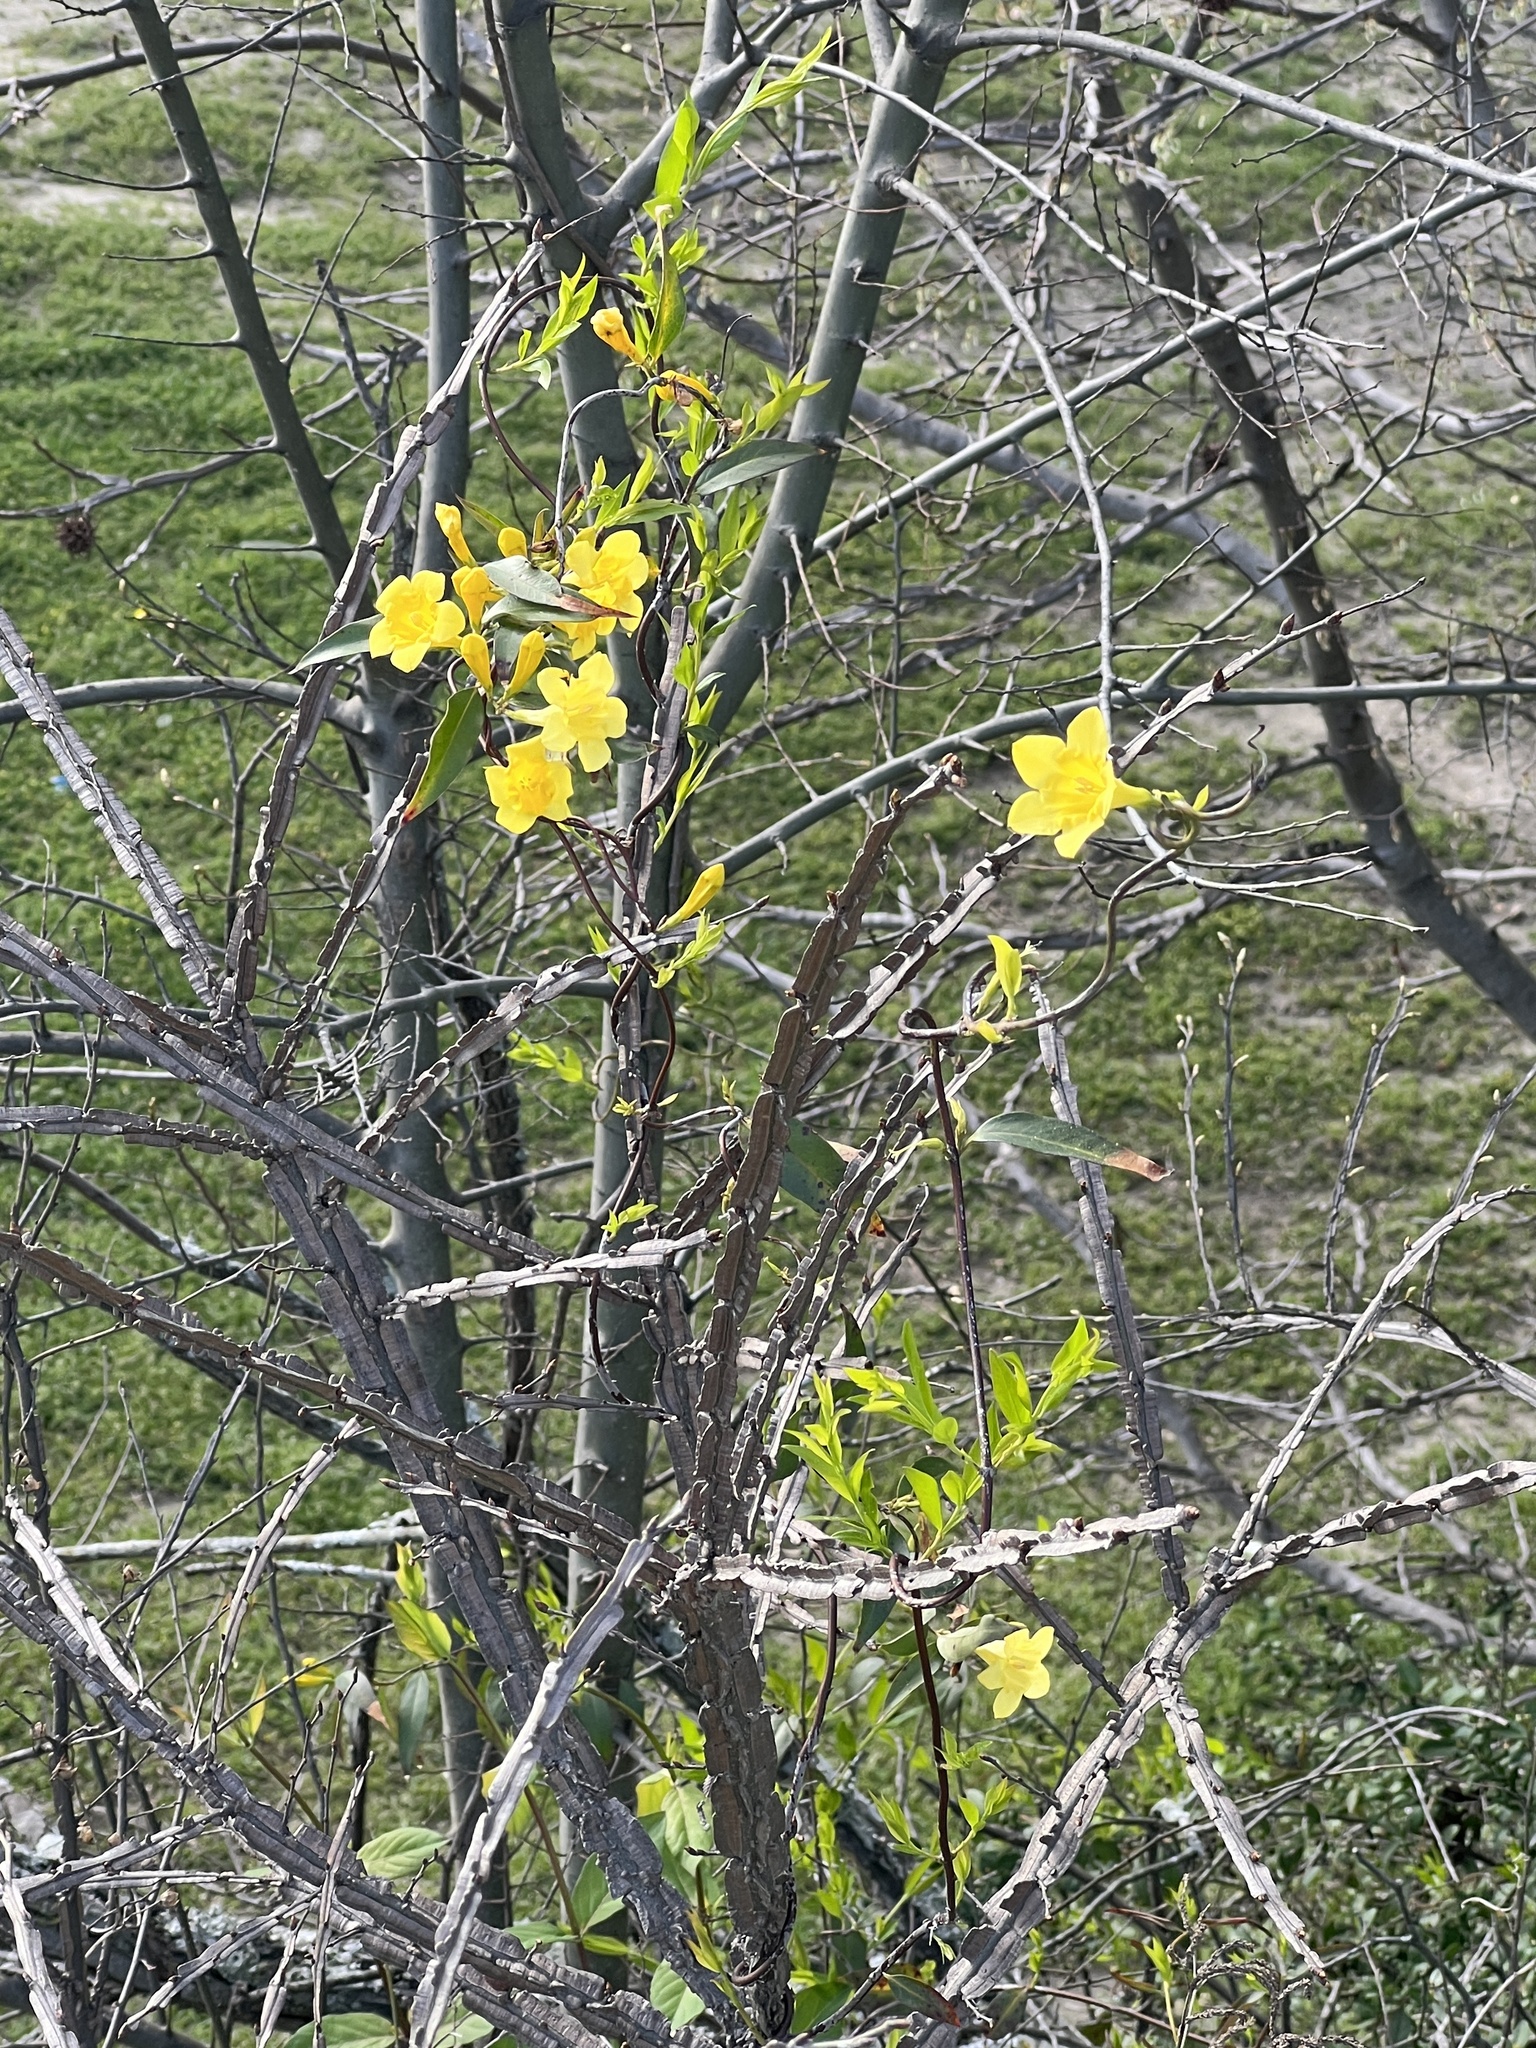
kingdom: Plantae
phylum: Tracheophyta
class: Magnoliopsida
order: Gentianales
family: Gelsemiaceae
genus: Gelsemium
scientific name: Gelsemium sempervirens
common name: Carolina-jasmine
